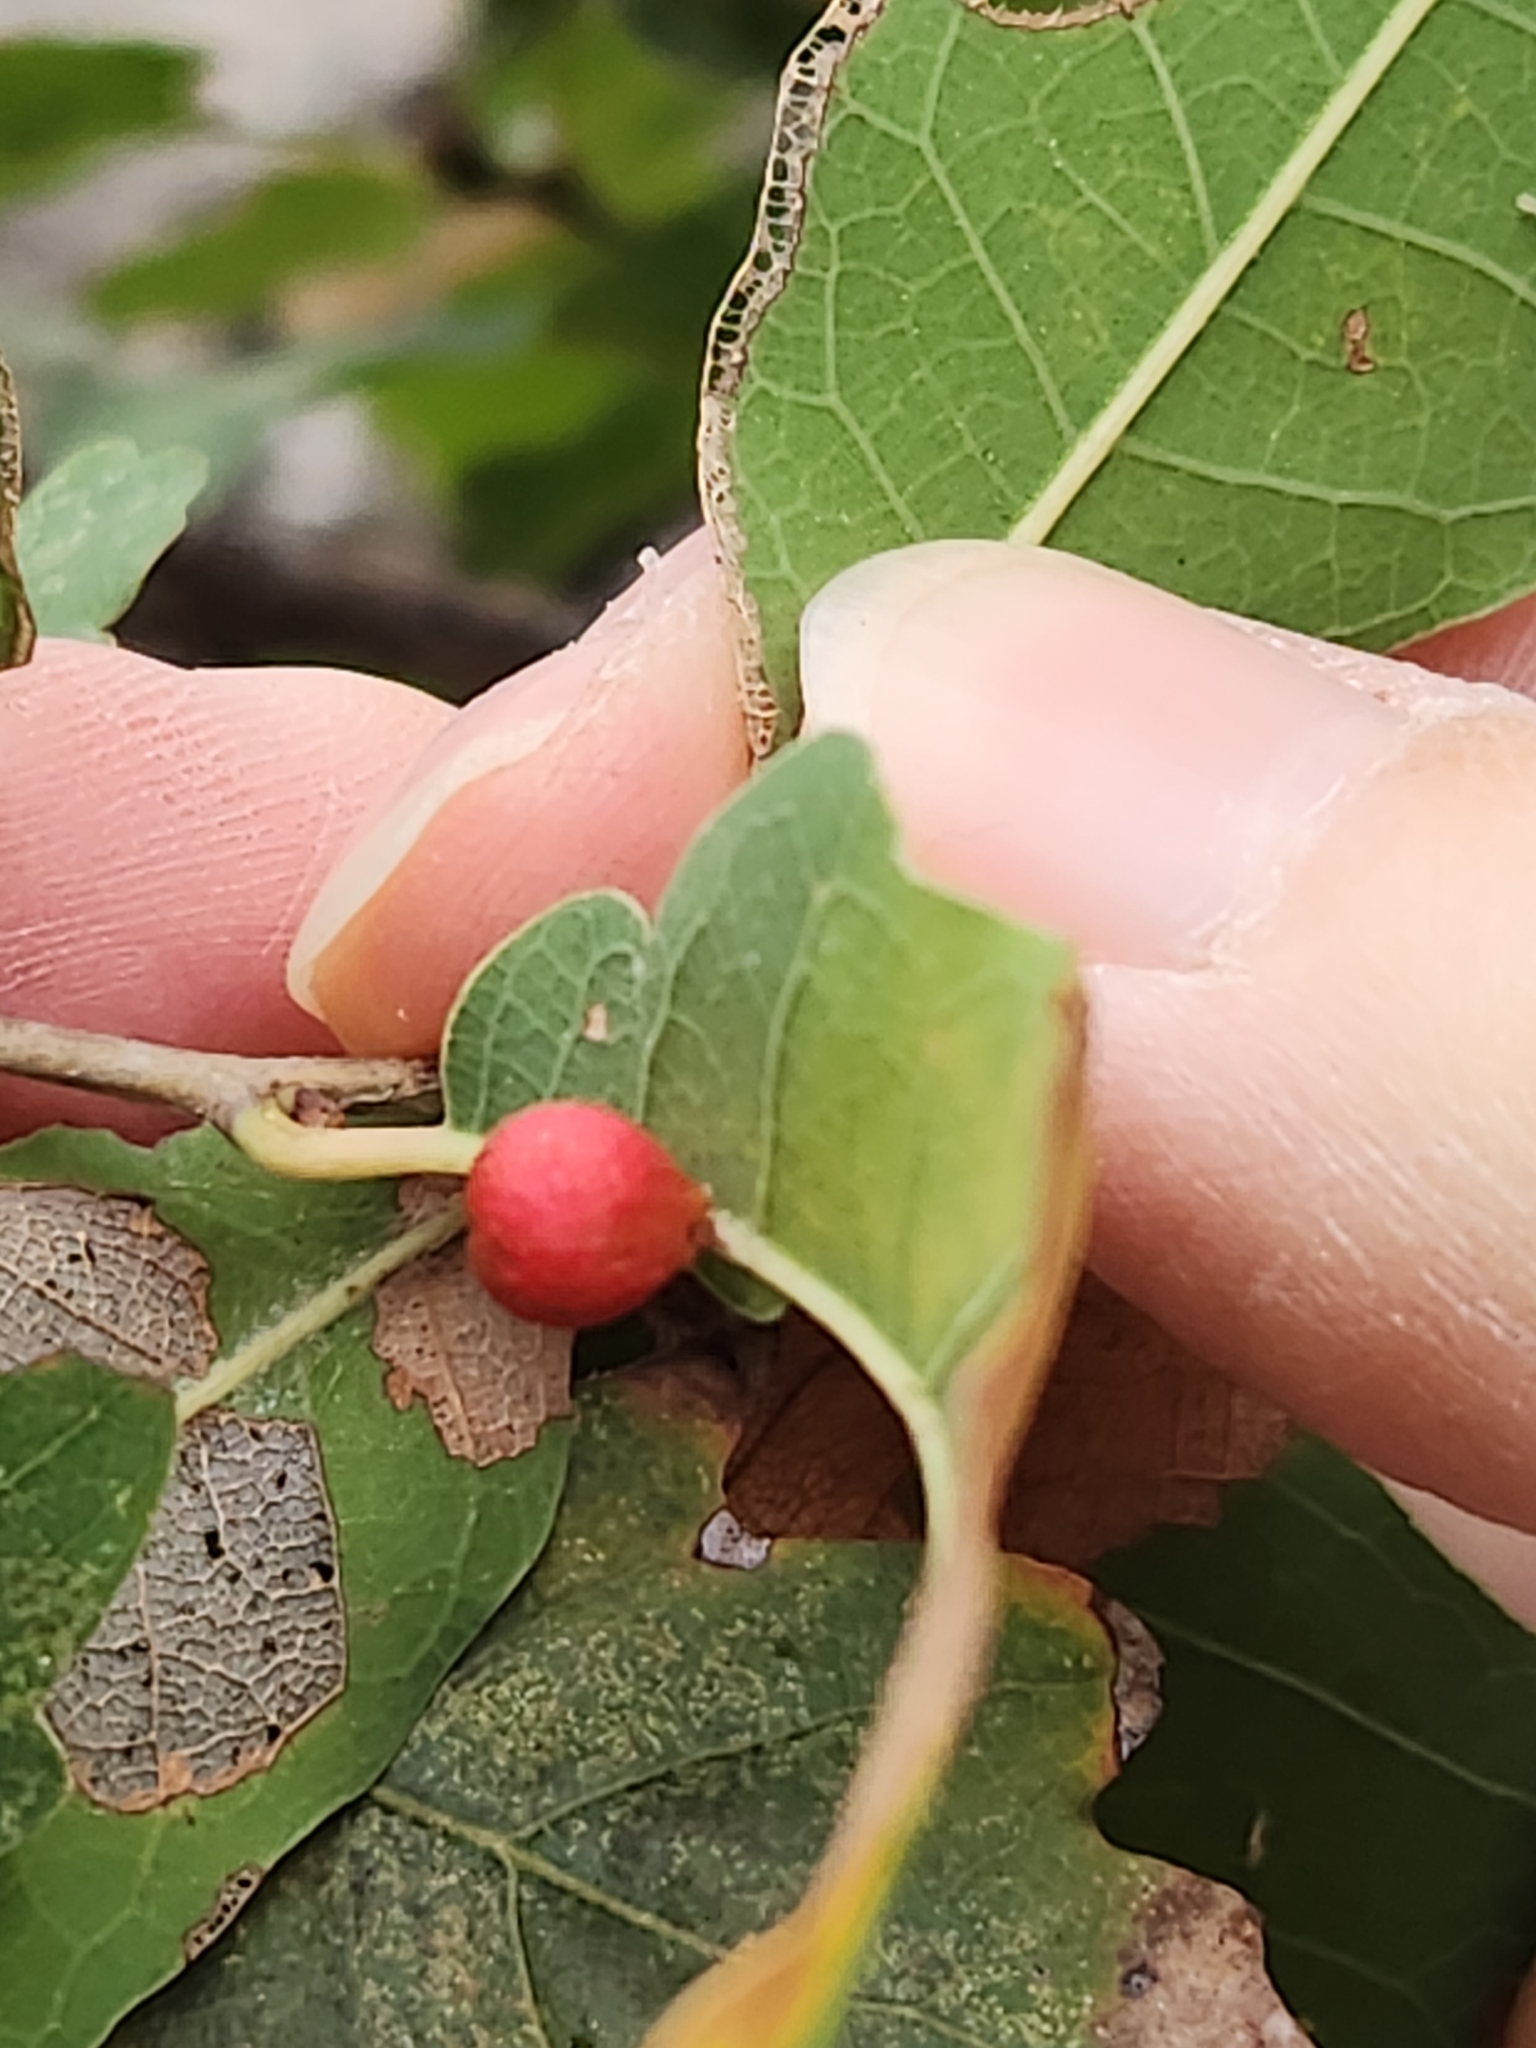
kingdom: Animalia
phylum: Arthropoda
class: Insecta
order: Hymenoptera
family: Cynipidae
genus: Andricus
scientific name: Andricus
